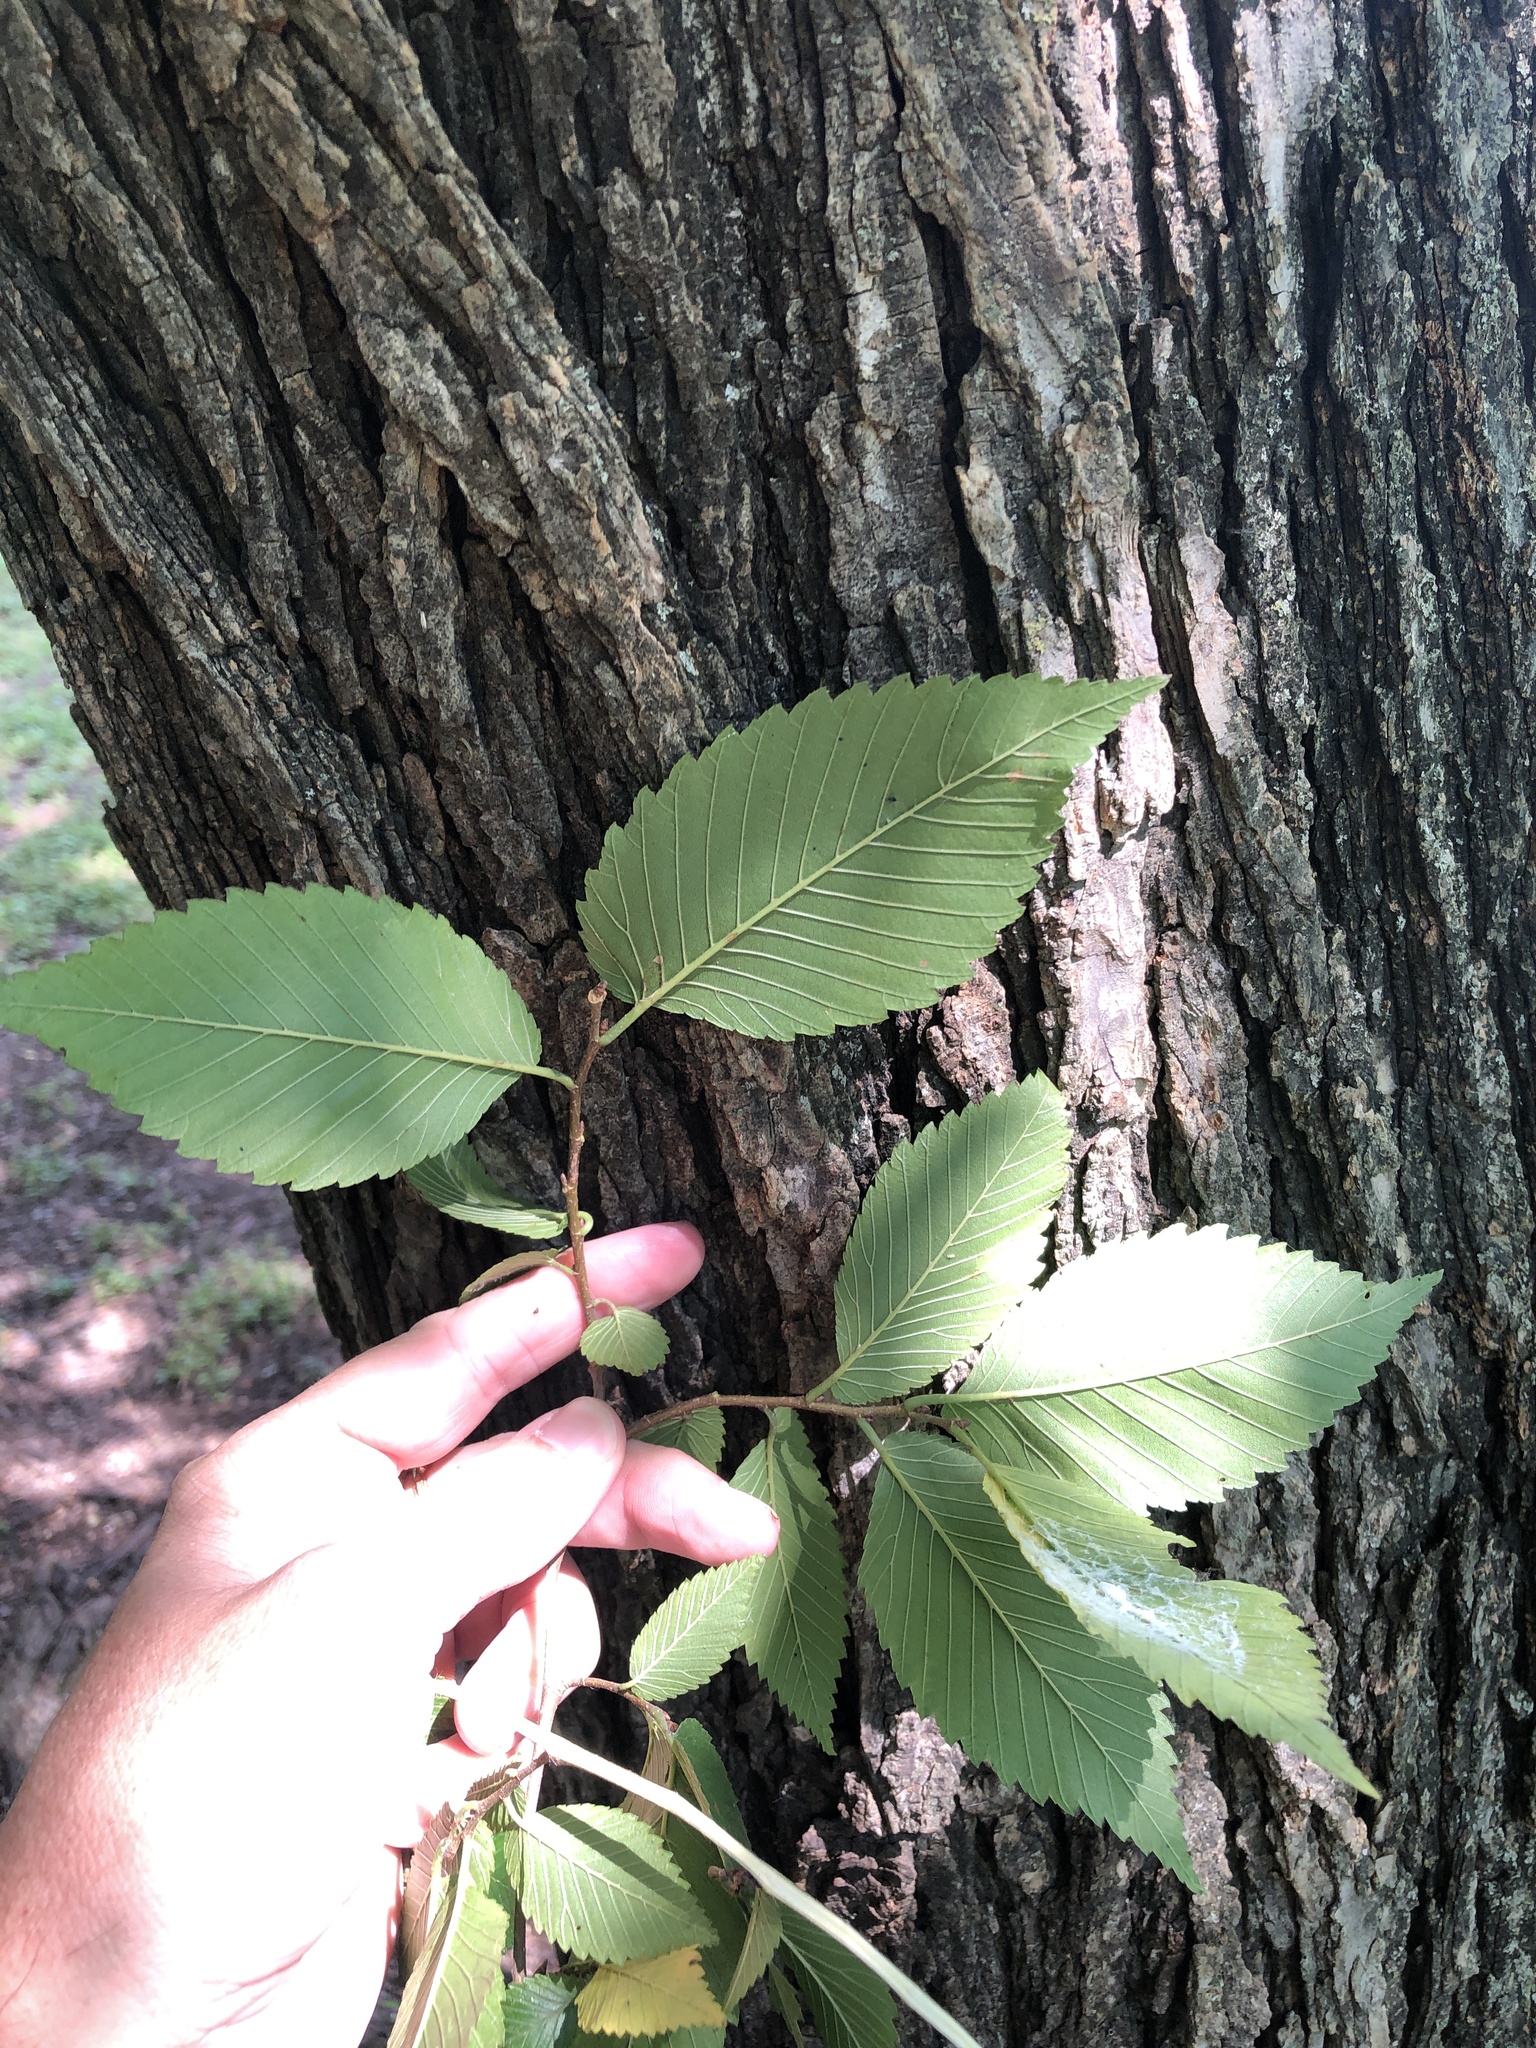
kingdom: Plantae
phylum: Tracheophyta
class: Magnoliopsida
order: Rosales
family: Ulmaceae
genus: Ulmus
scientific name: Ulmus americana
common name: American elm
